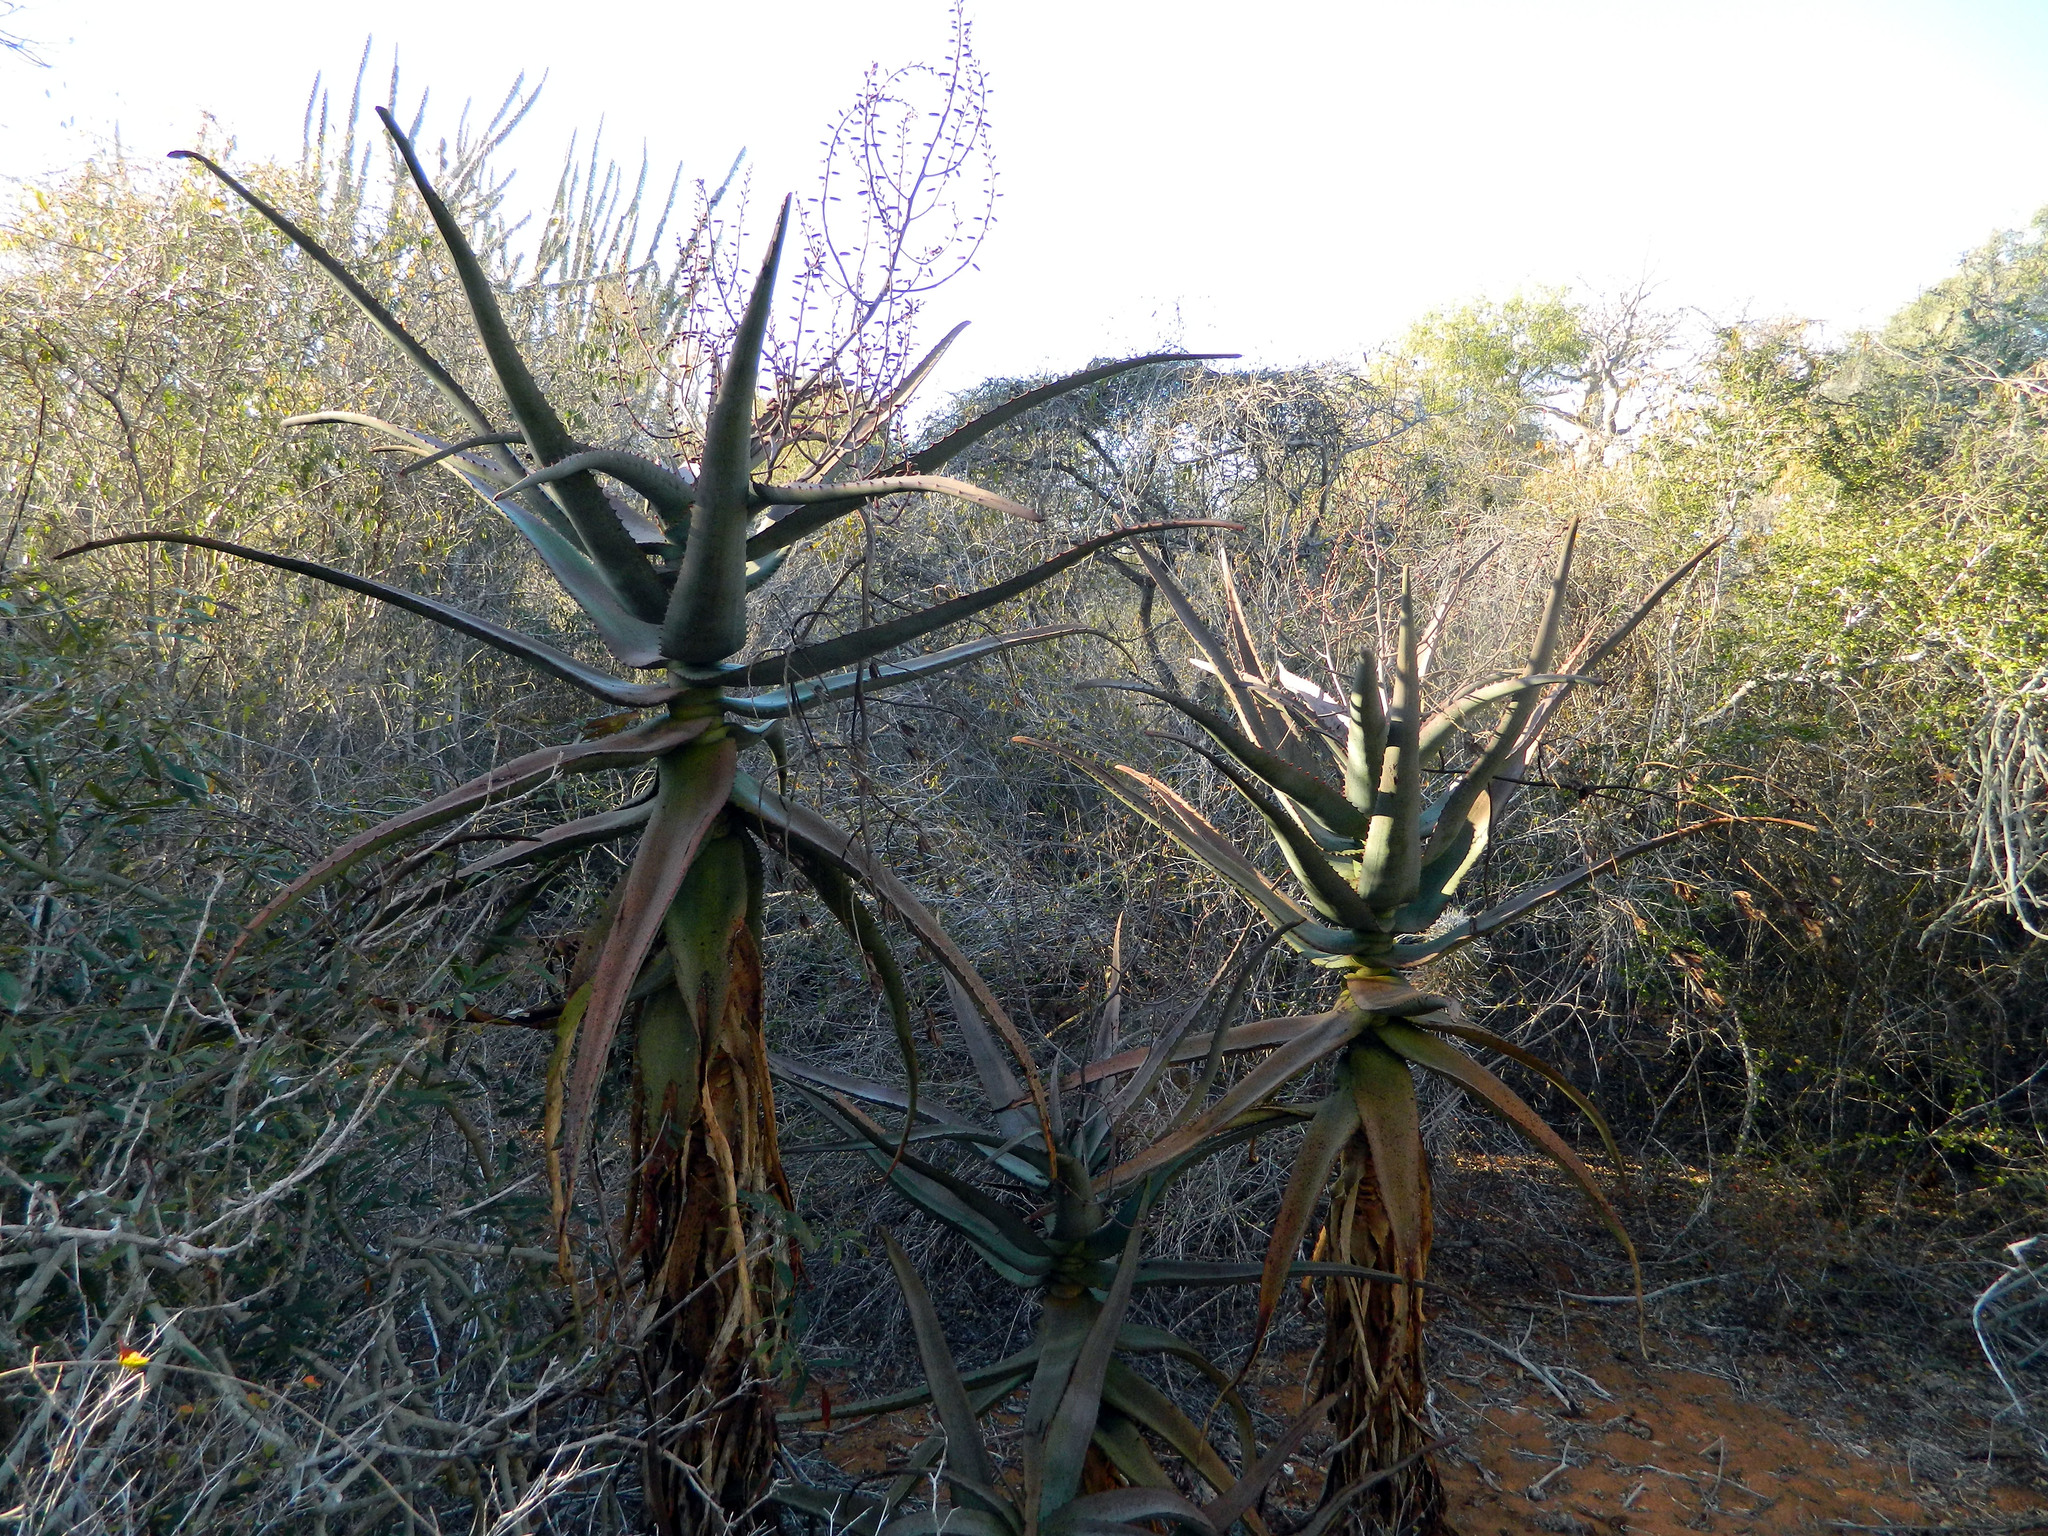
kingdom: Plantae
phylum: Tracheophyta
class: Liliopsida
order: Asparagales
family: Asphodelaceae
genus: Aloe
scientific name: Aloe divaricata
